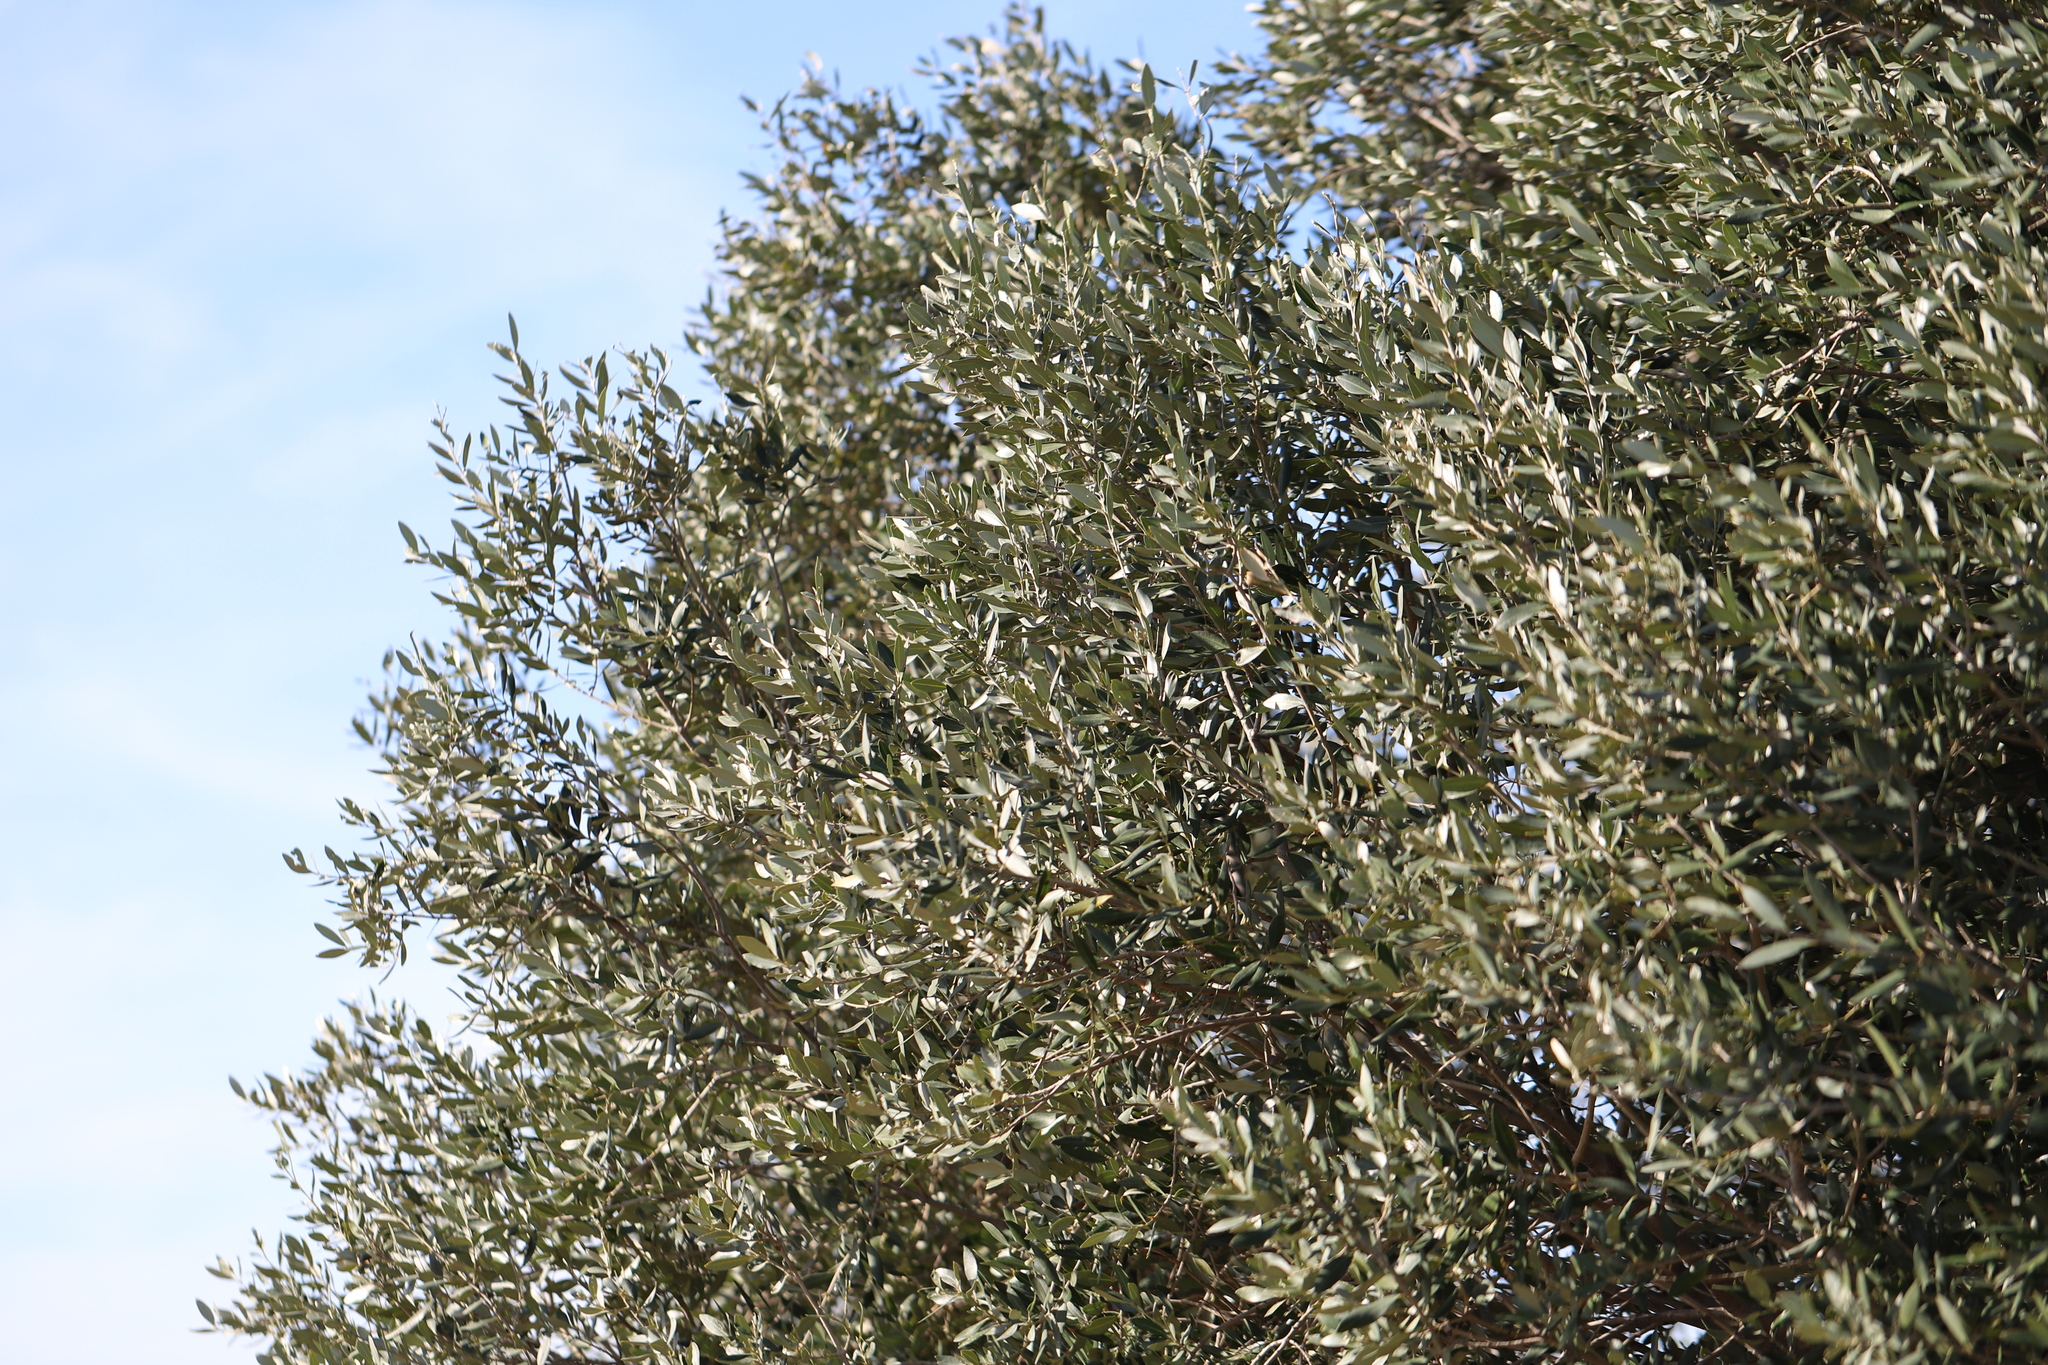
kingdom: Plantae
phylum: Tracheophyta
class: Magnoliopsida
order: Lamiales
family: Oleaceae
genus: Olea
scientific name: Olea europaea
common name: Olive
